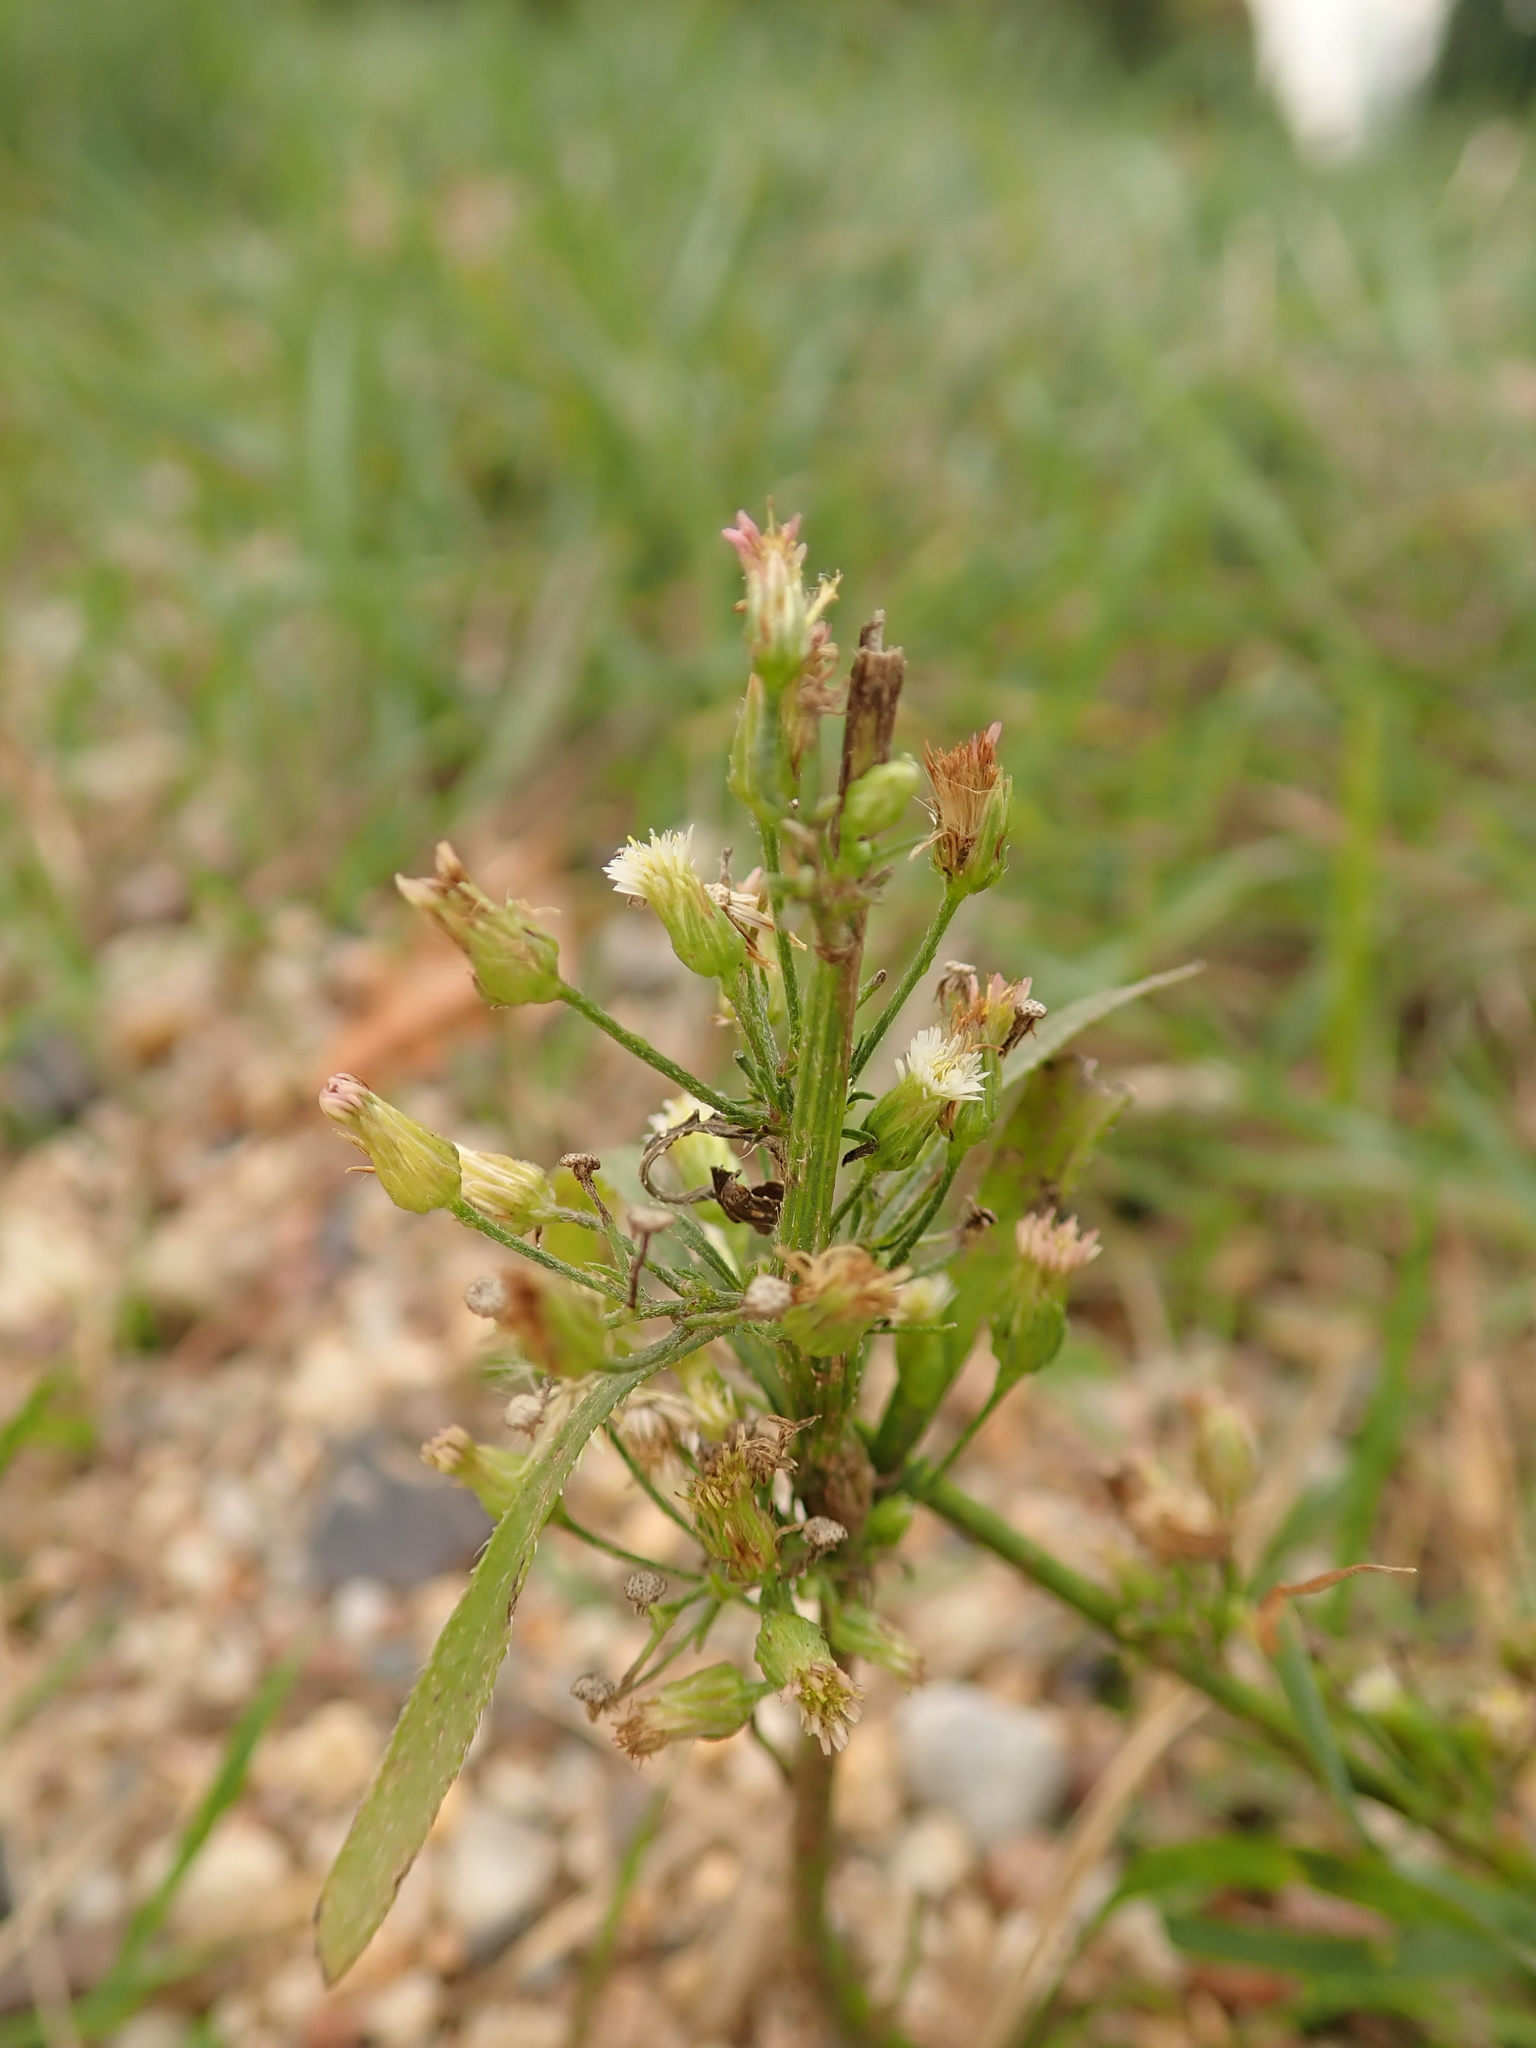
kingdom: Plantae
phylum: Tracheophyta
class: Magnoliopsida
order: Asterales
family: Asteraceae
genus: Erigeron
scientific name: Erigeron canadensis
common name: Canadian fleabane
